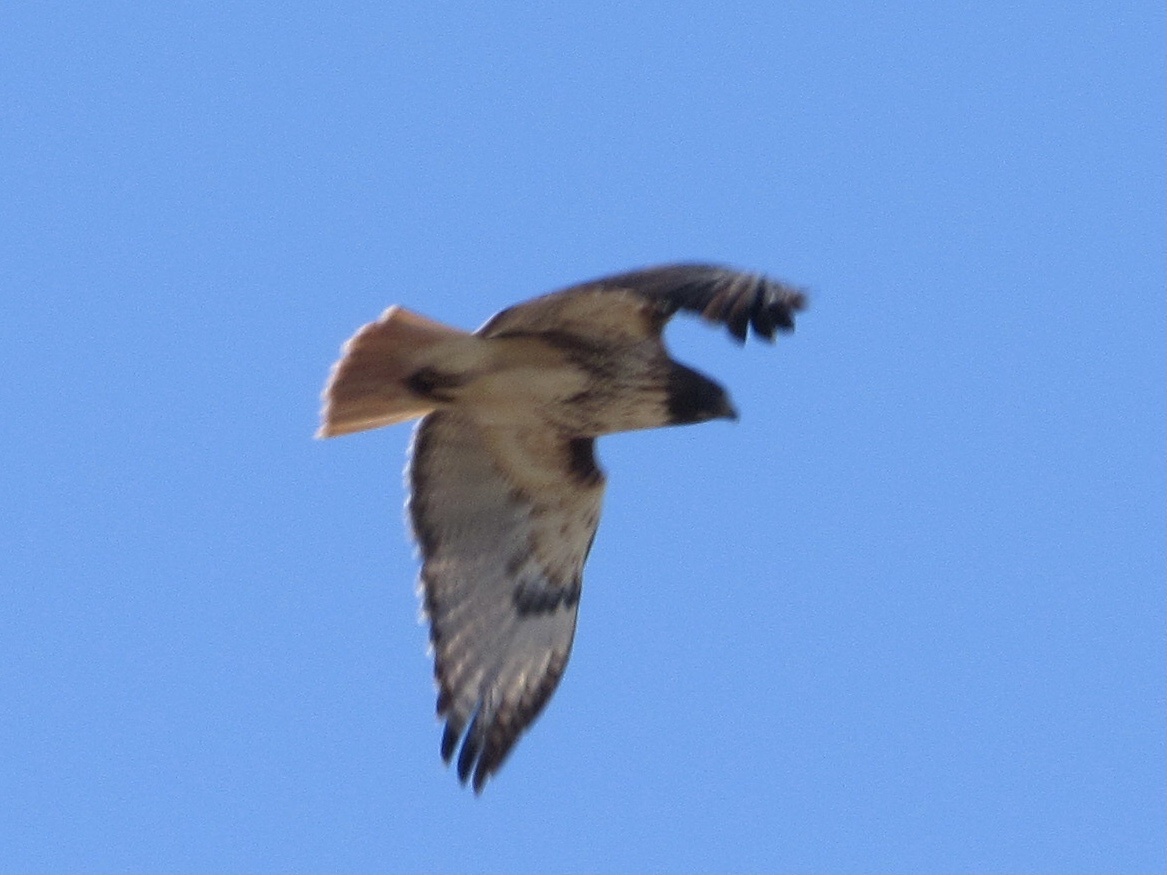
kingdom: Animalia
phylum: Chordata
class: Aves
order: Accipitriformes
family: Accipitridae
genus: Buteo
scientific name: Buteo jamaicensis
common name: Red-tailed hawk
